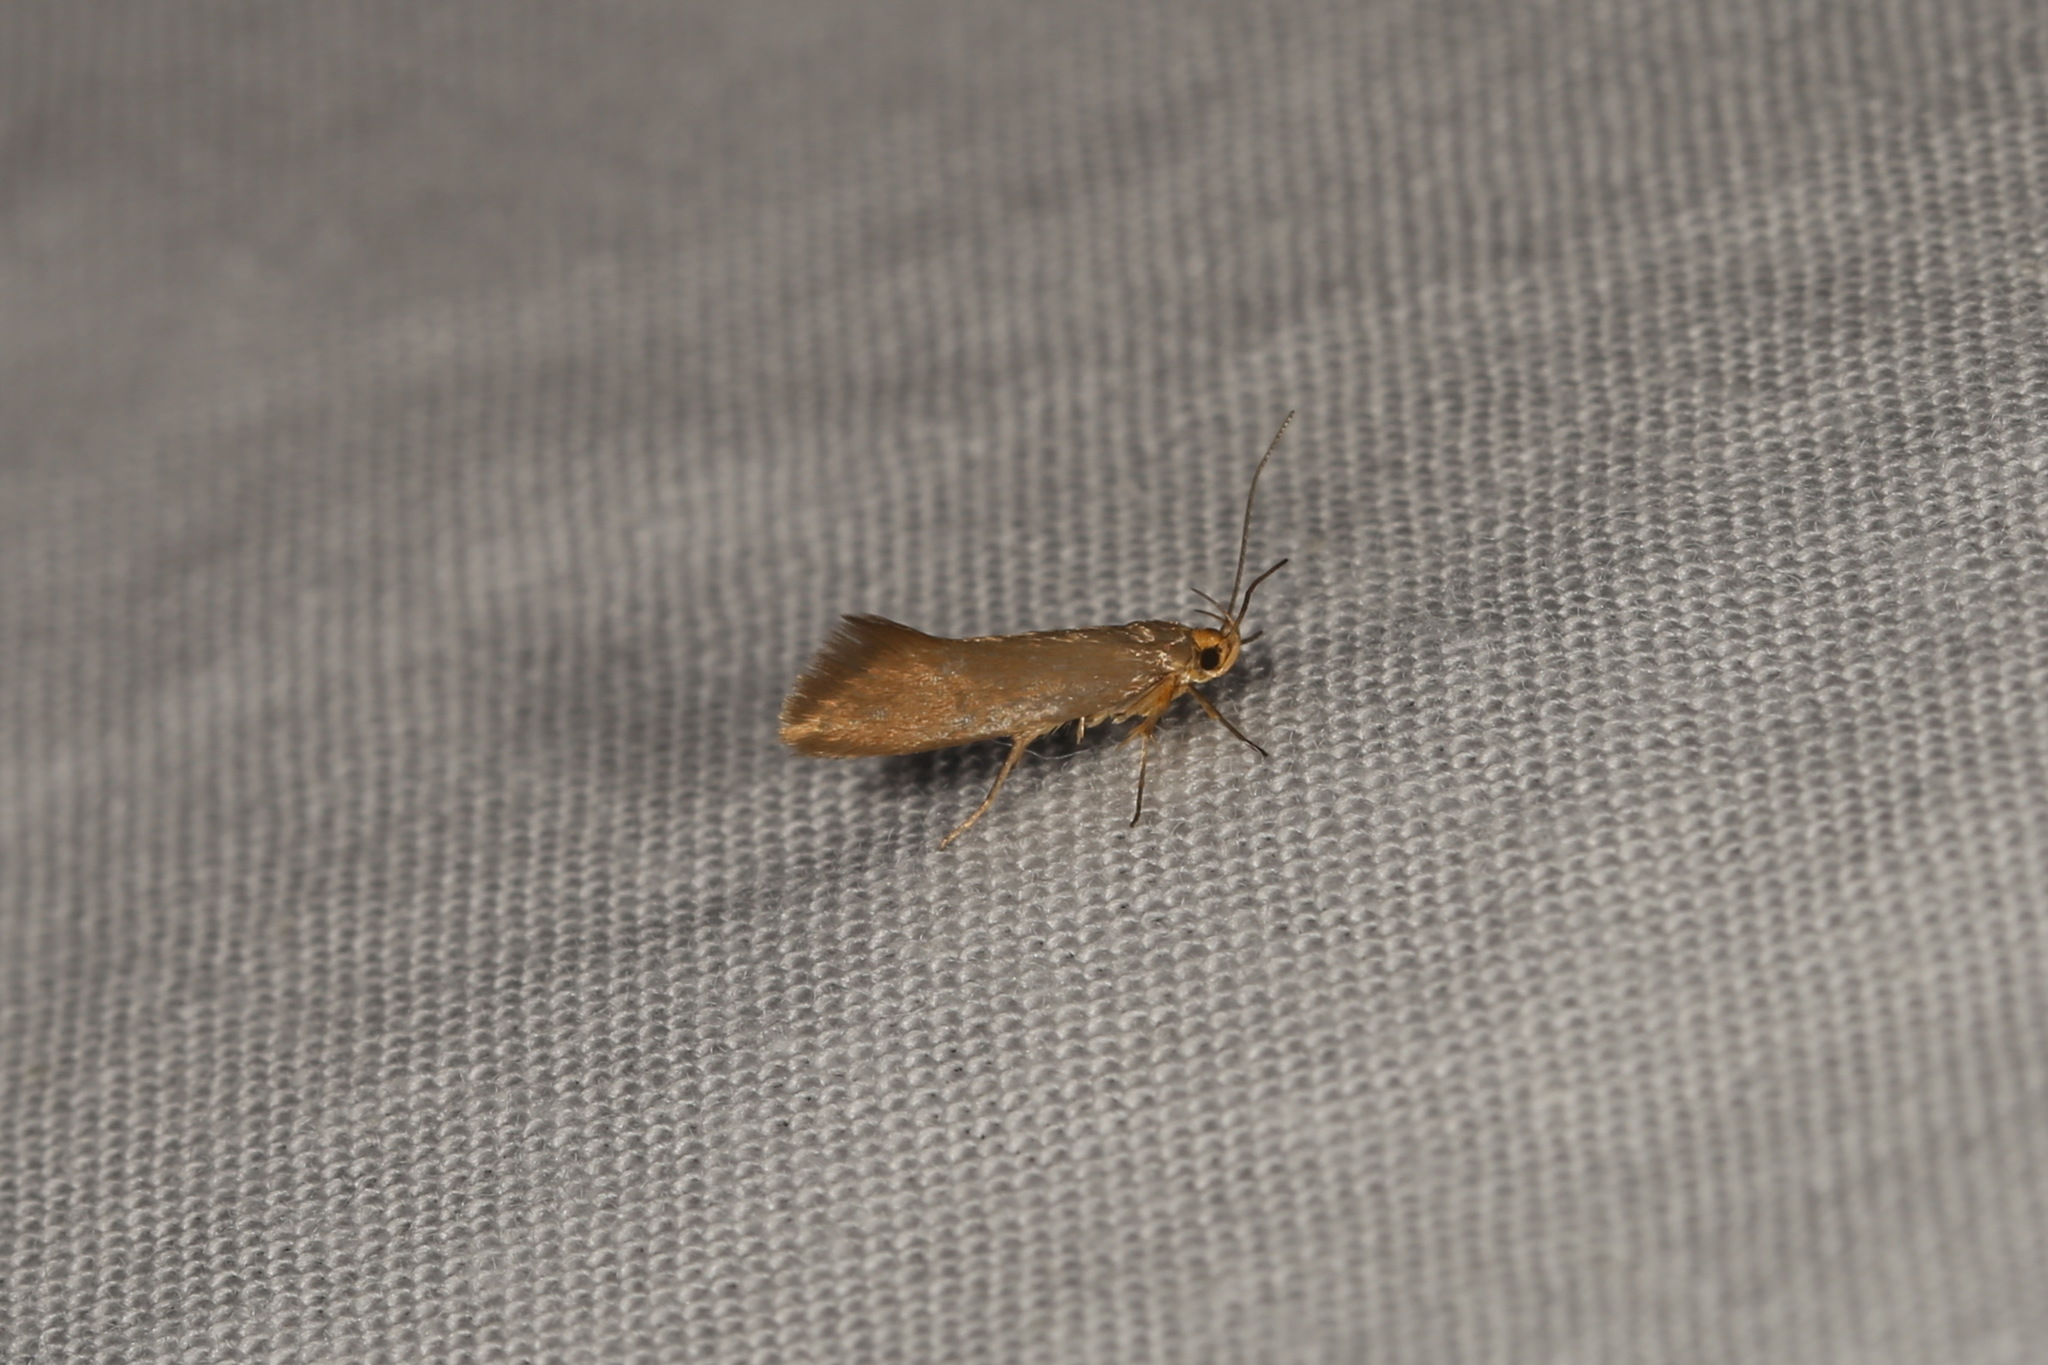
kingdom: Animalia
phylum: Arthropoda
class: Insecta
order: Lepidoptera
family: Oecophoridae
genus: Borkhausenia
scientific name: Borkhausenia Crassa unitella
